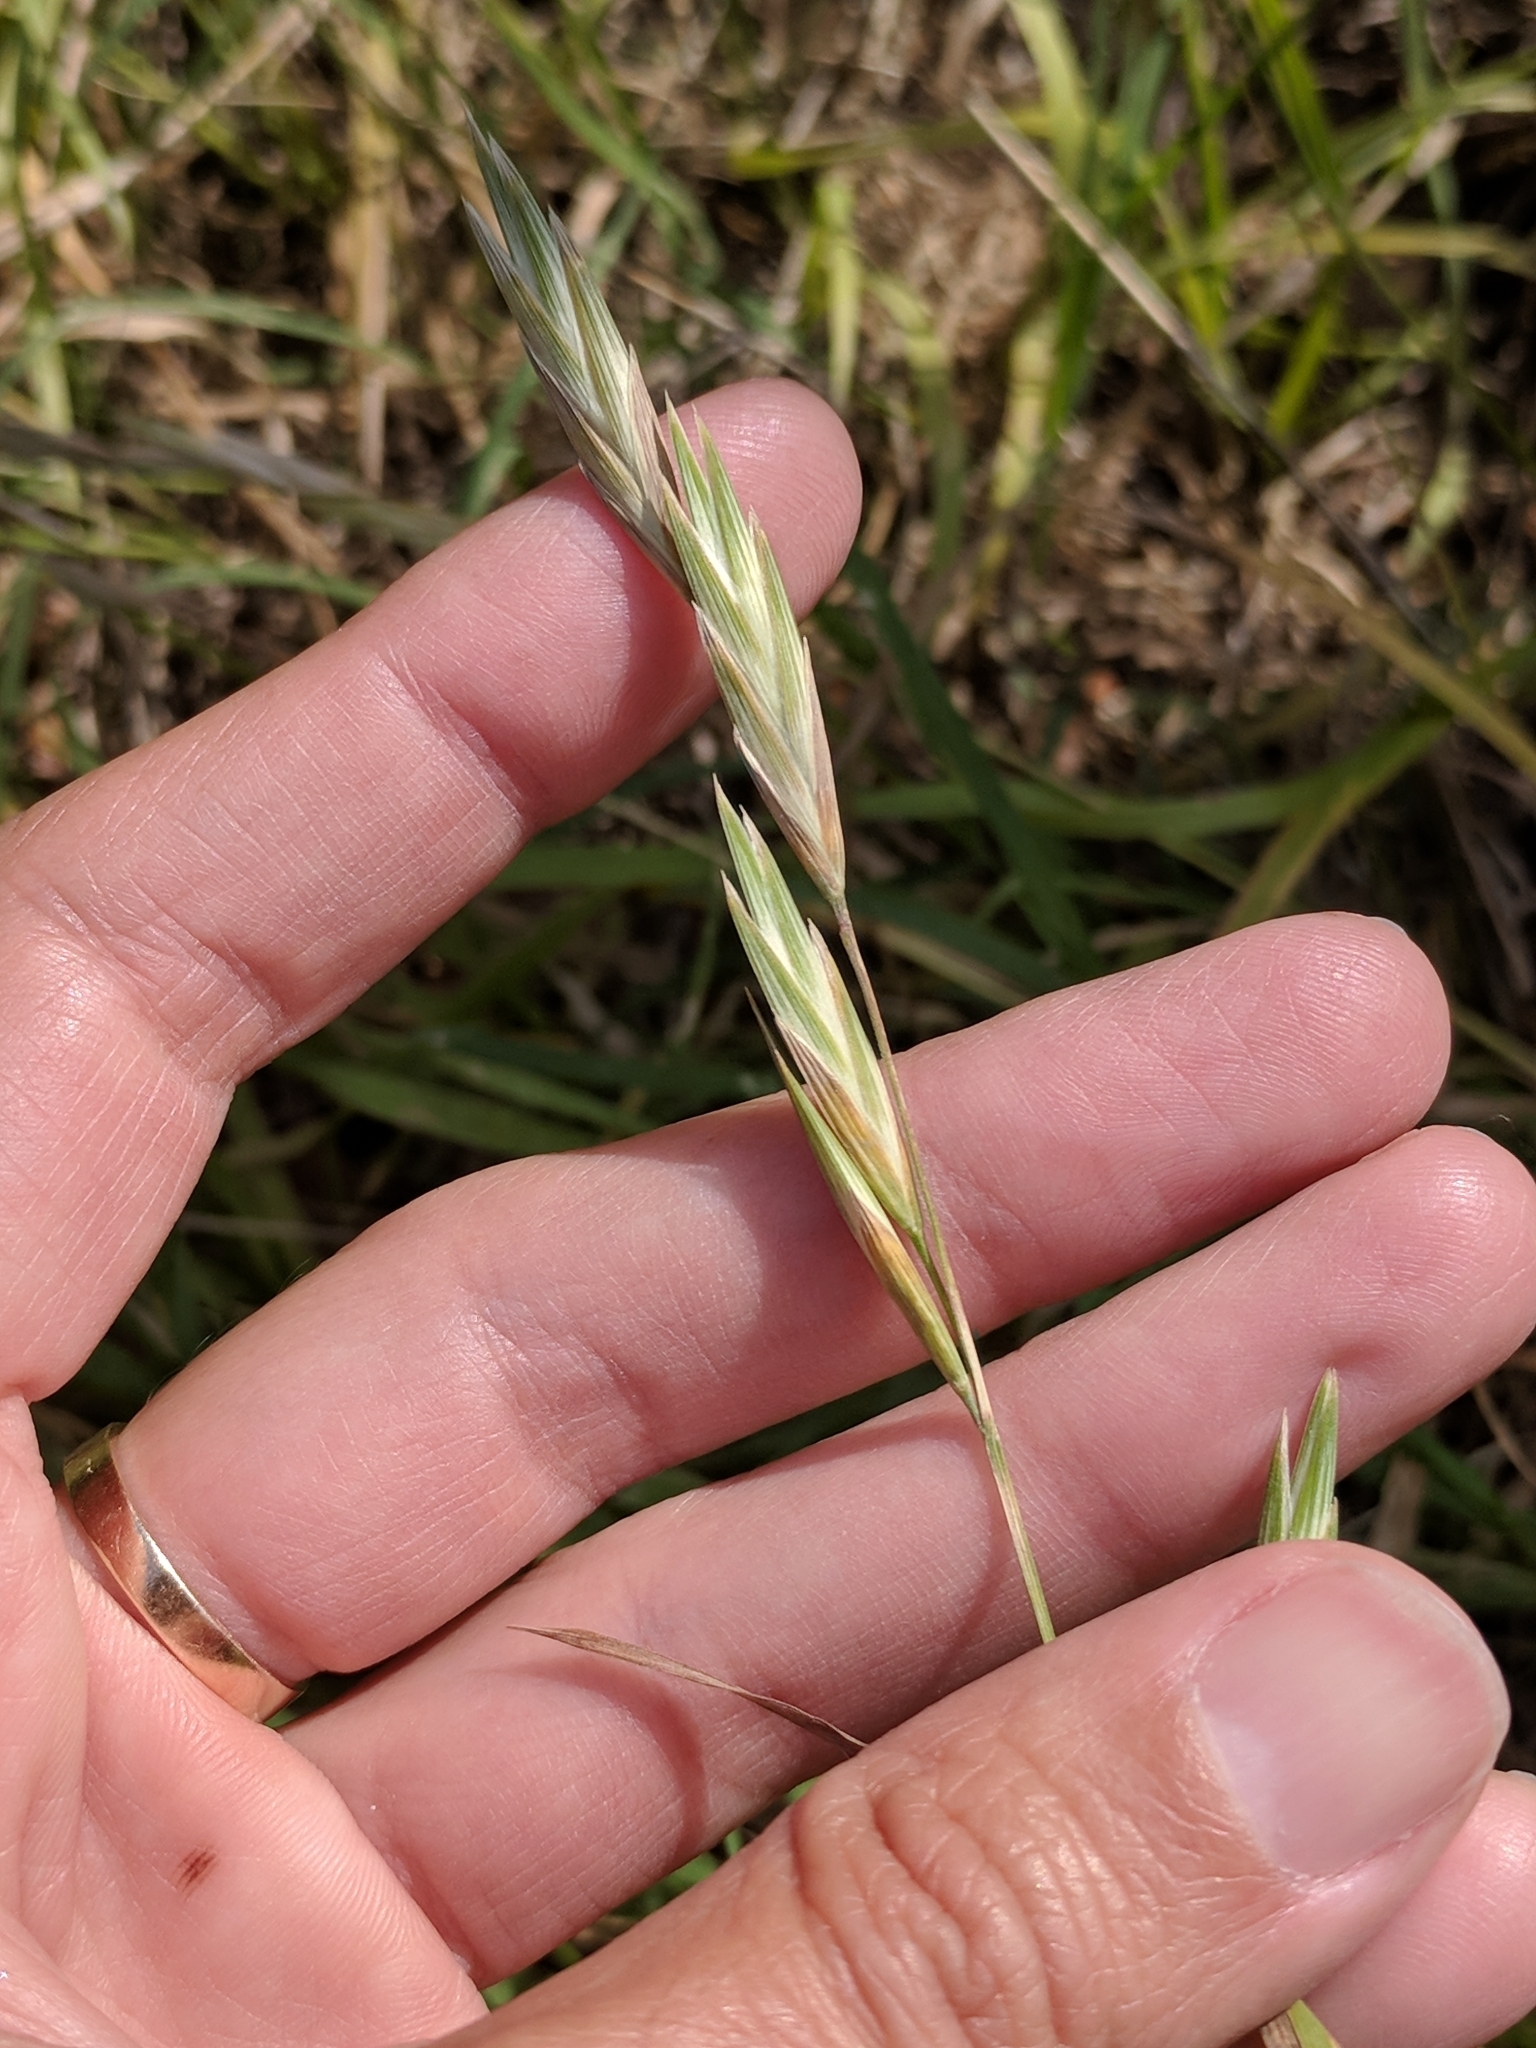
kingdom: Plantae
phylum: Tracheophyta
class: Liliopsida
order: Poales
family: Poaceae
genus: Bromus
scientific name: Bromus catharticus
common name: Rescuegrass
